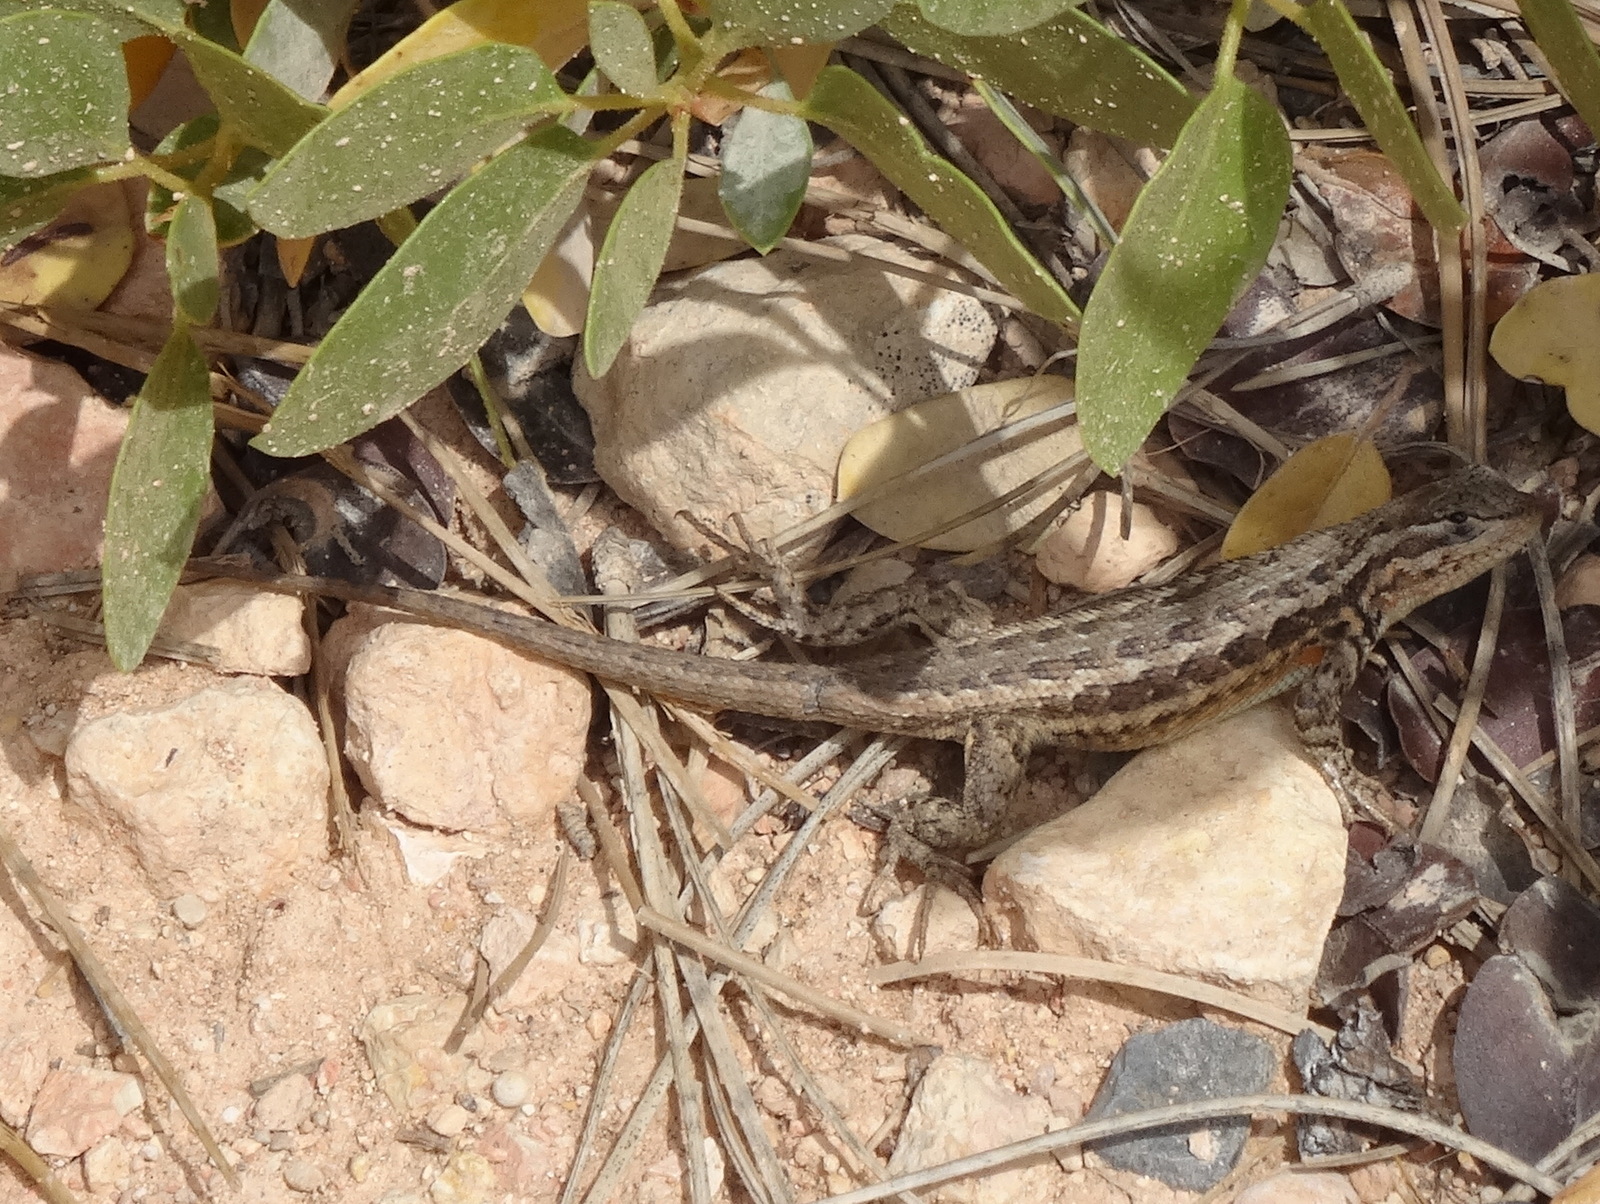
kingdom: Animalia
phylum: Chordata
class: Squamata
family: Phrynosomatidae
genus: Sceloporus
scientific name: Sceloporus graciosus
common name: Sagebrush lizard
